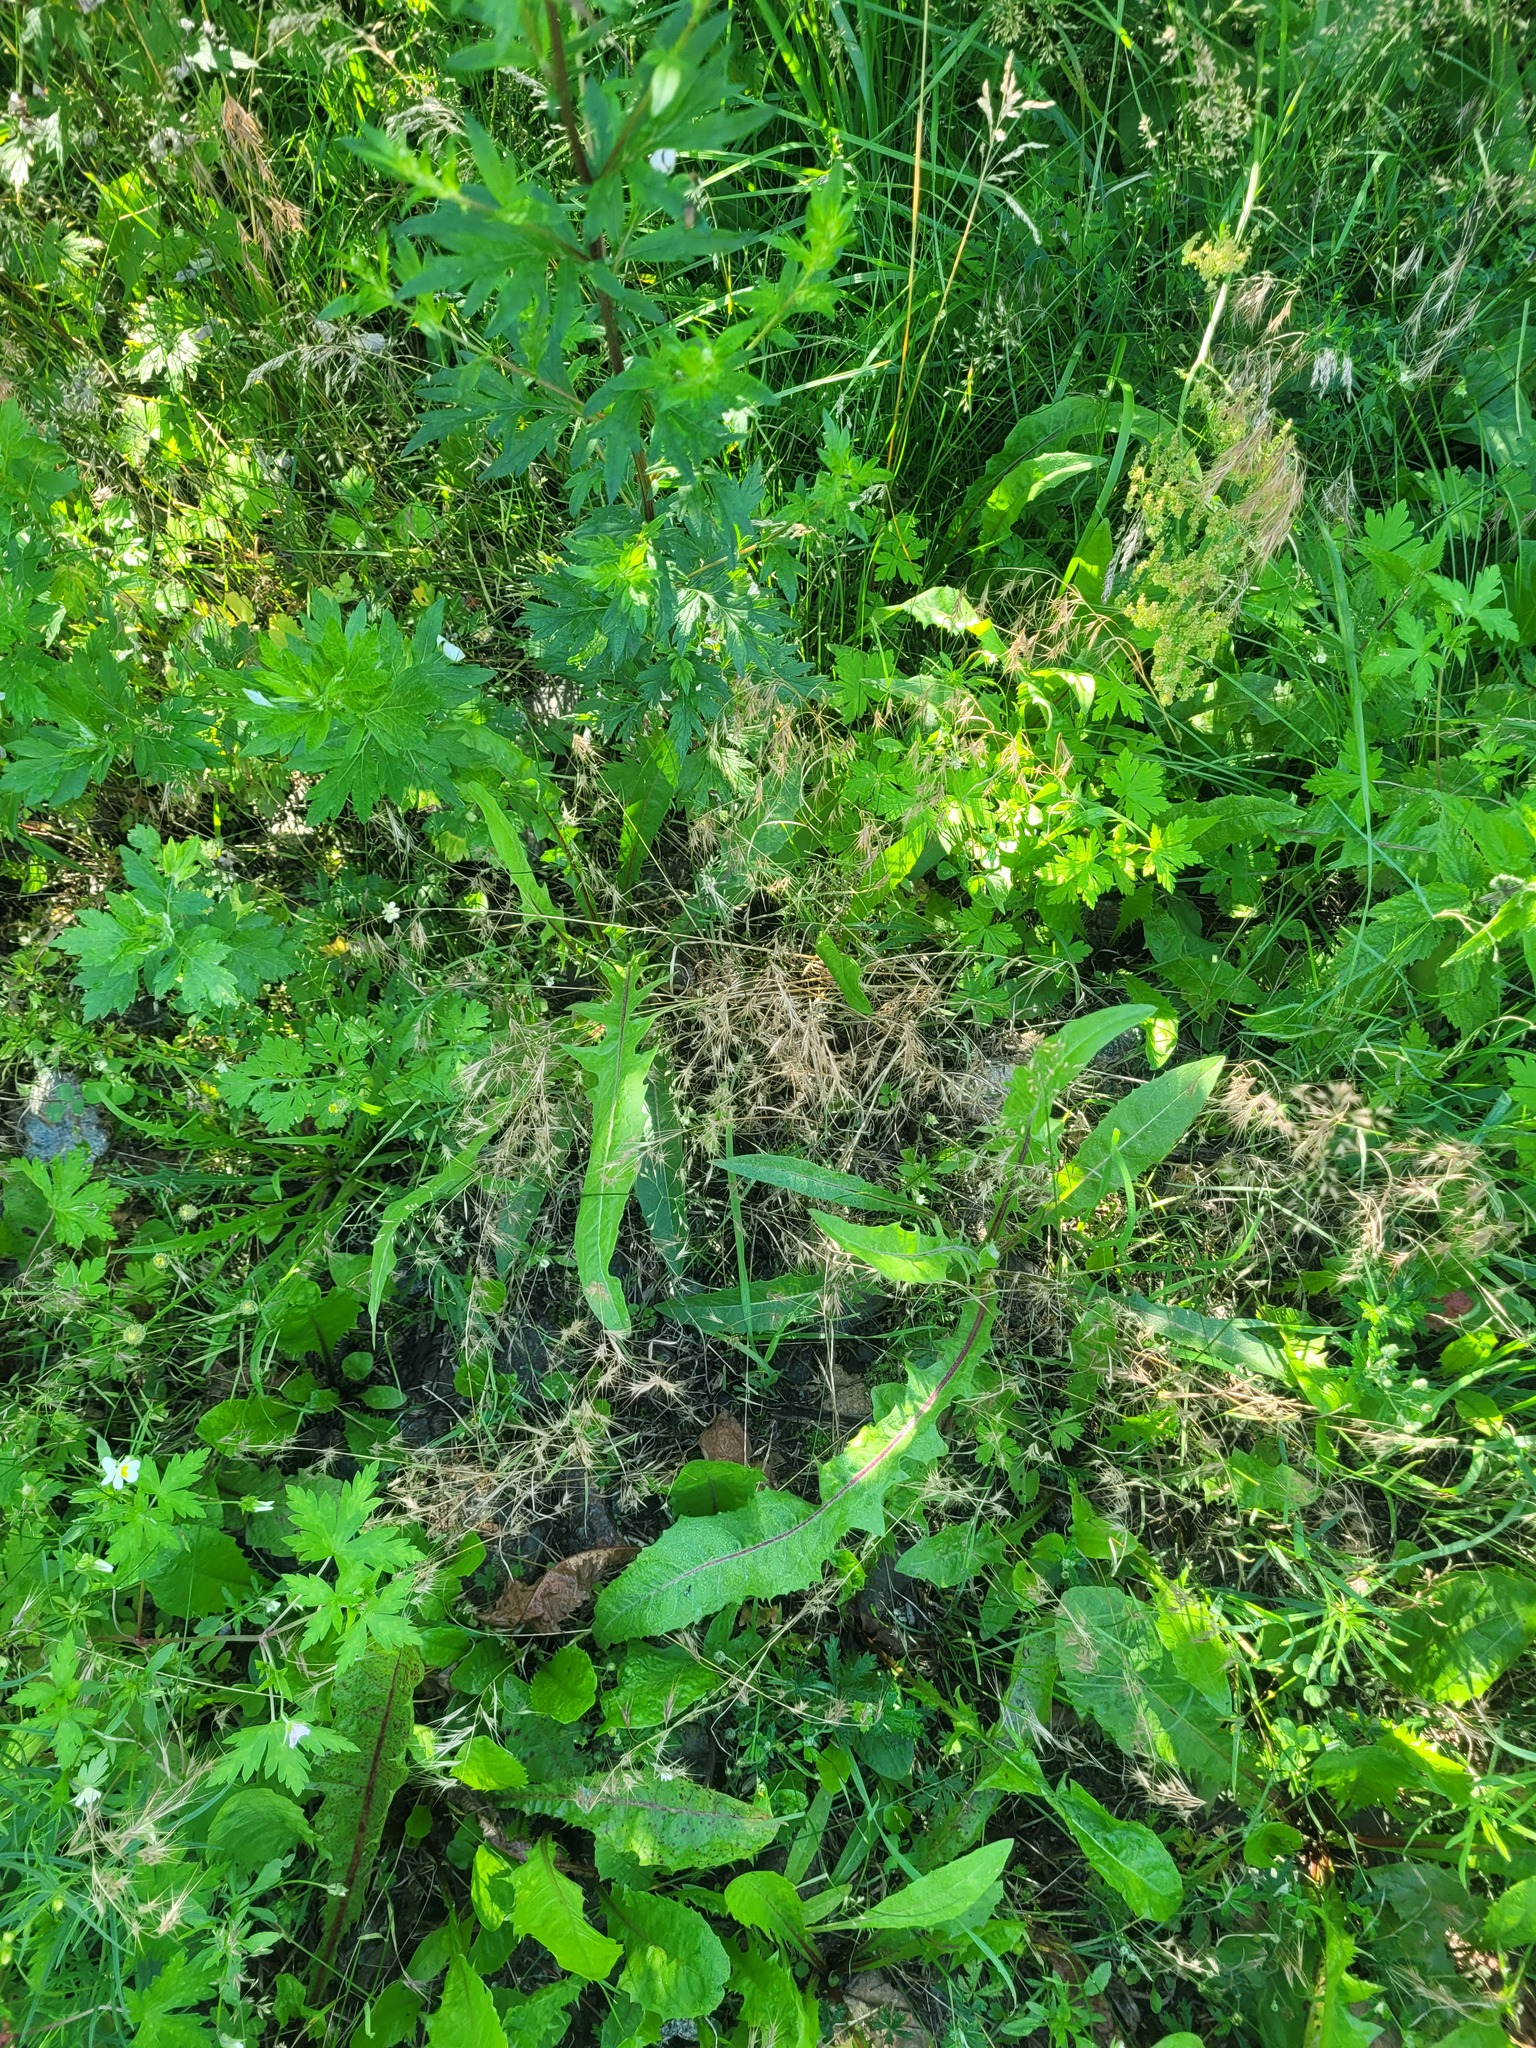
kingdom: Plantae
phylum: Tracheophyta
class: Liliopsida
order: Poales
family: Poaceae
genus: Bromus
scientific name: Bromus tectorum
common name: Cheatgrass
